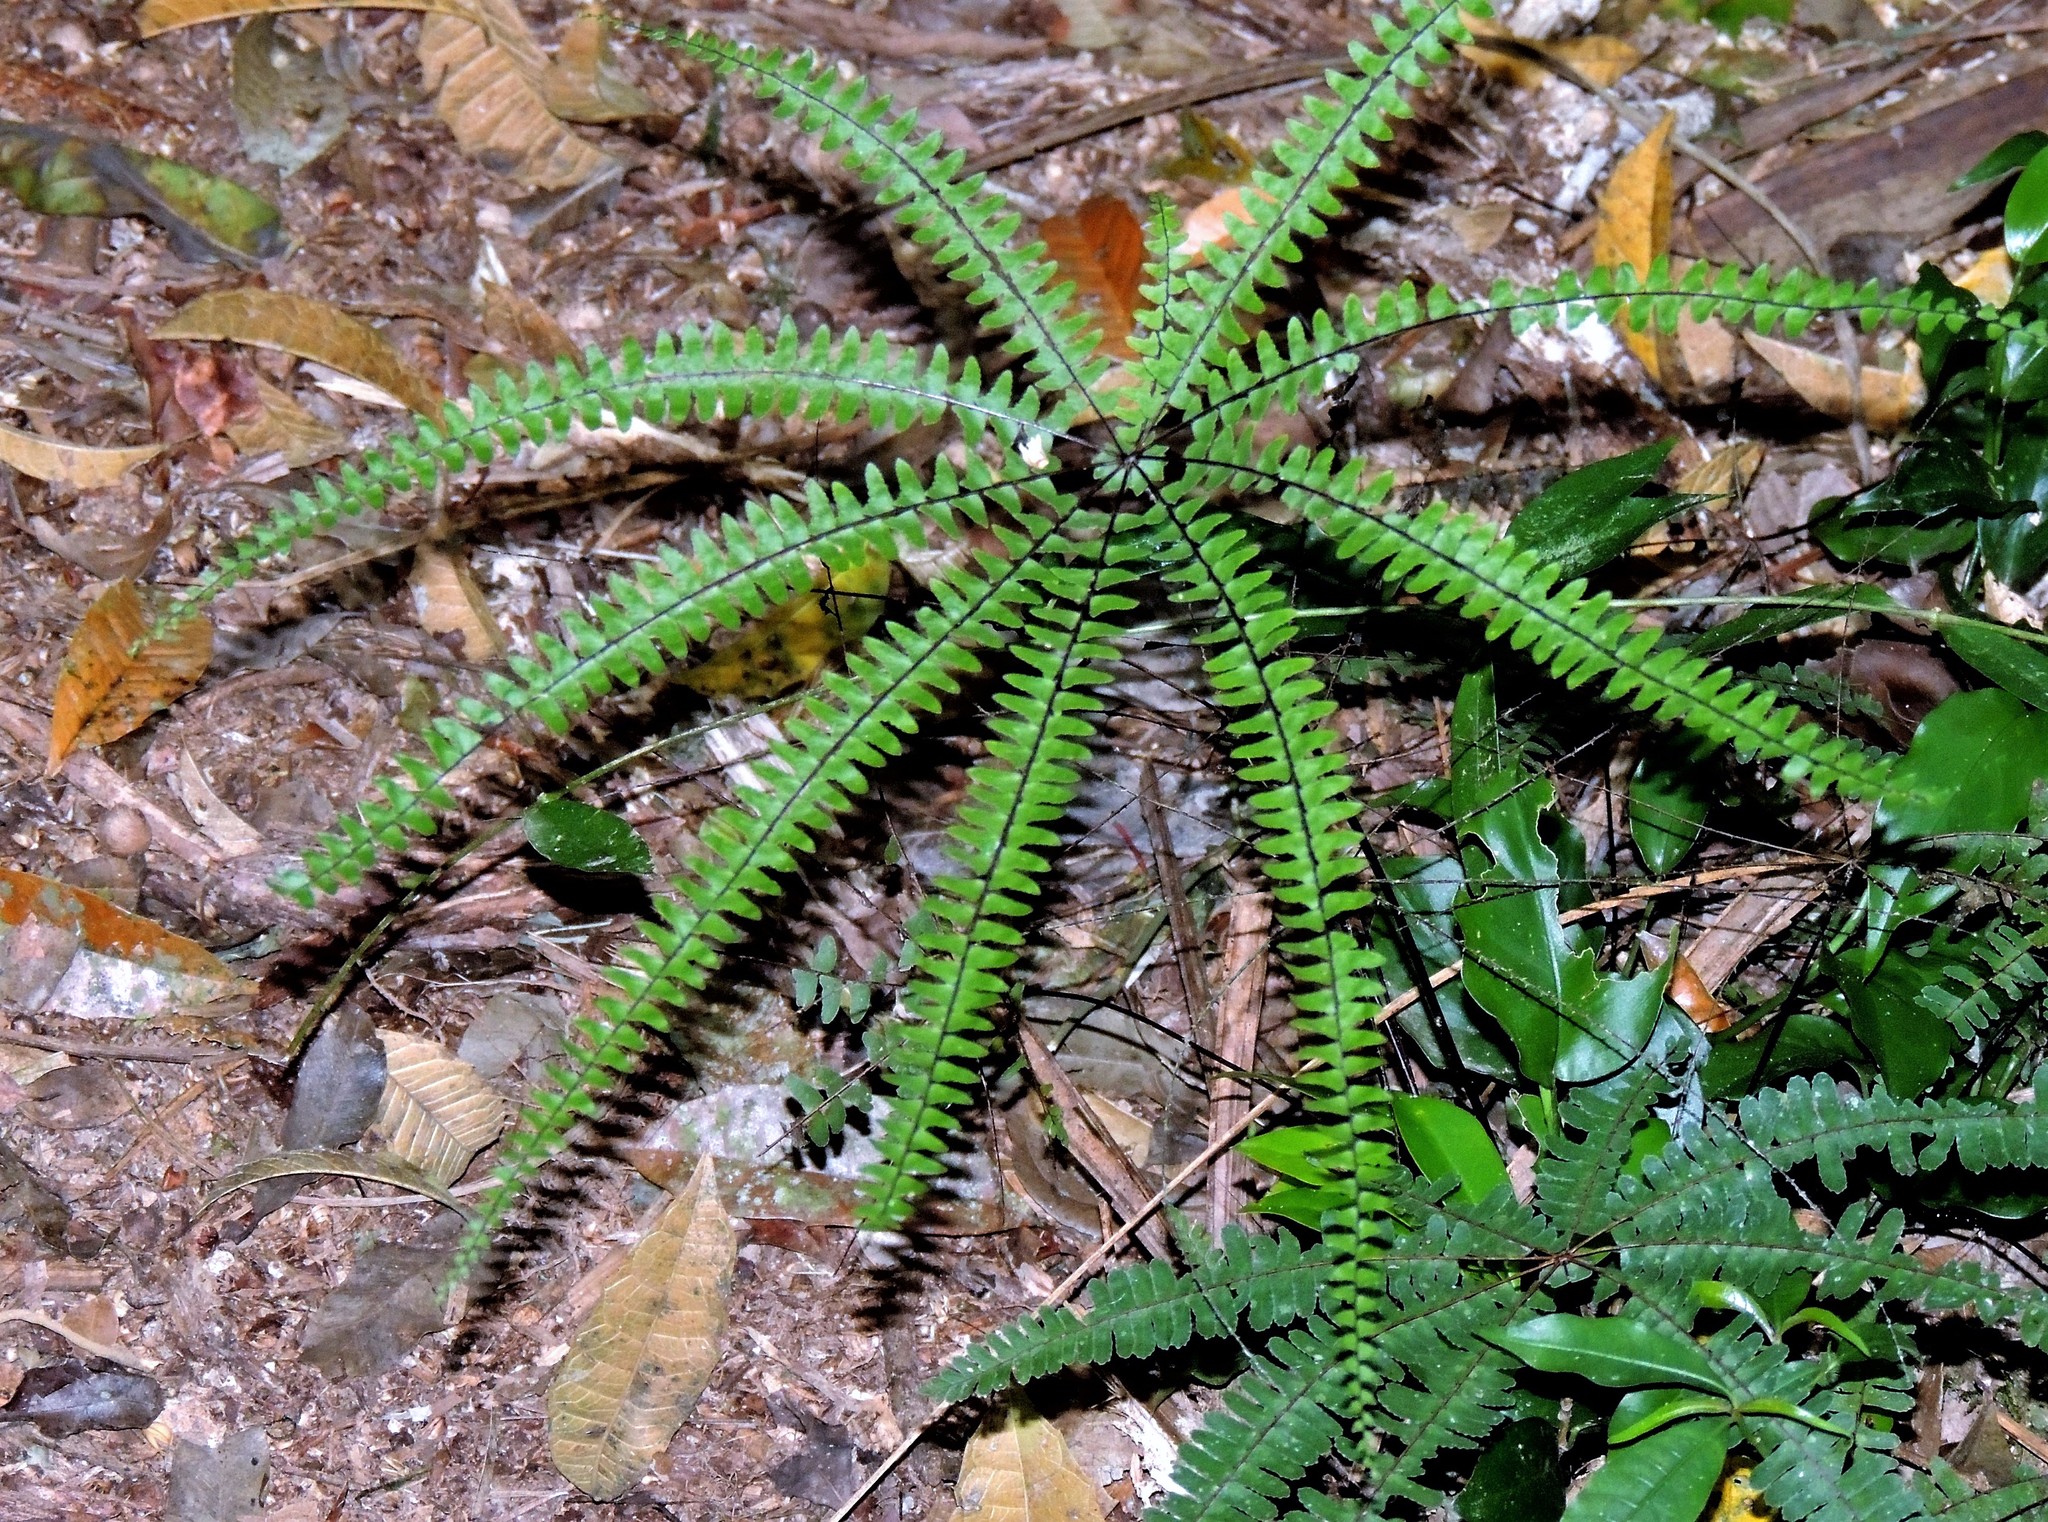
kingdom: Plantae
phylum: Tracheophyta
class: Polypodiopsida
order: Polypodiales
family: Pteridaceae
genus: Adiantopsis
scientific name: Adiantopsis radiata
